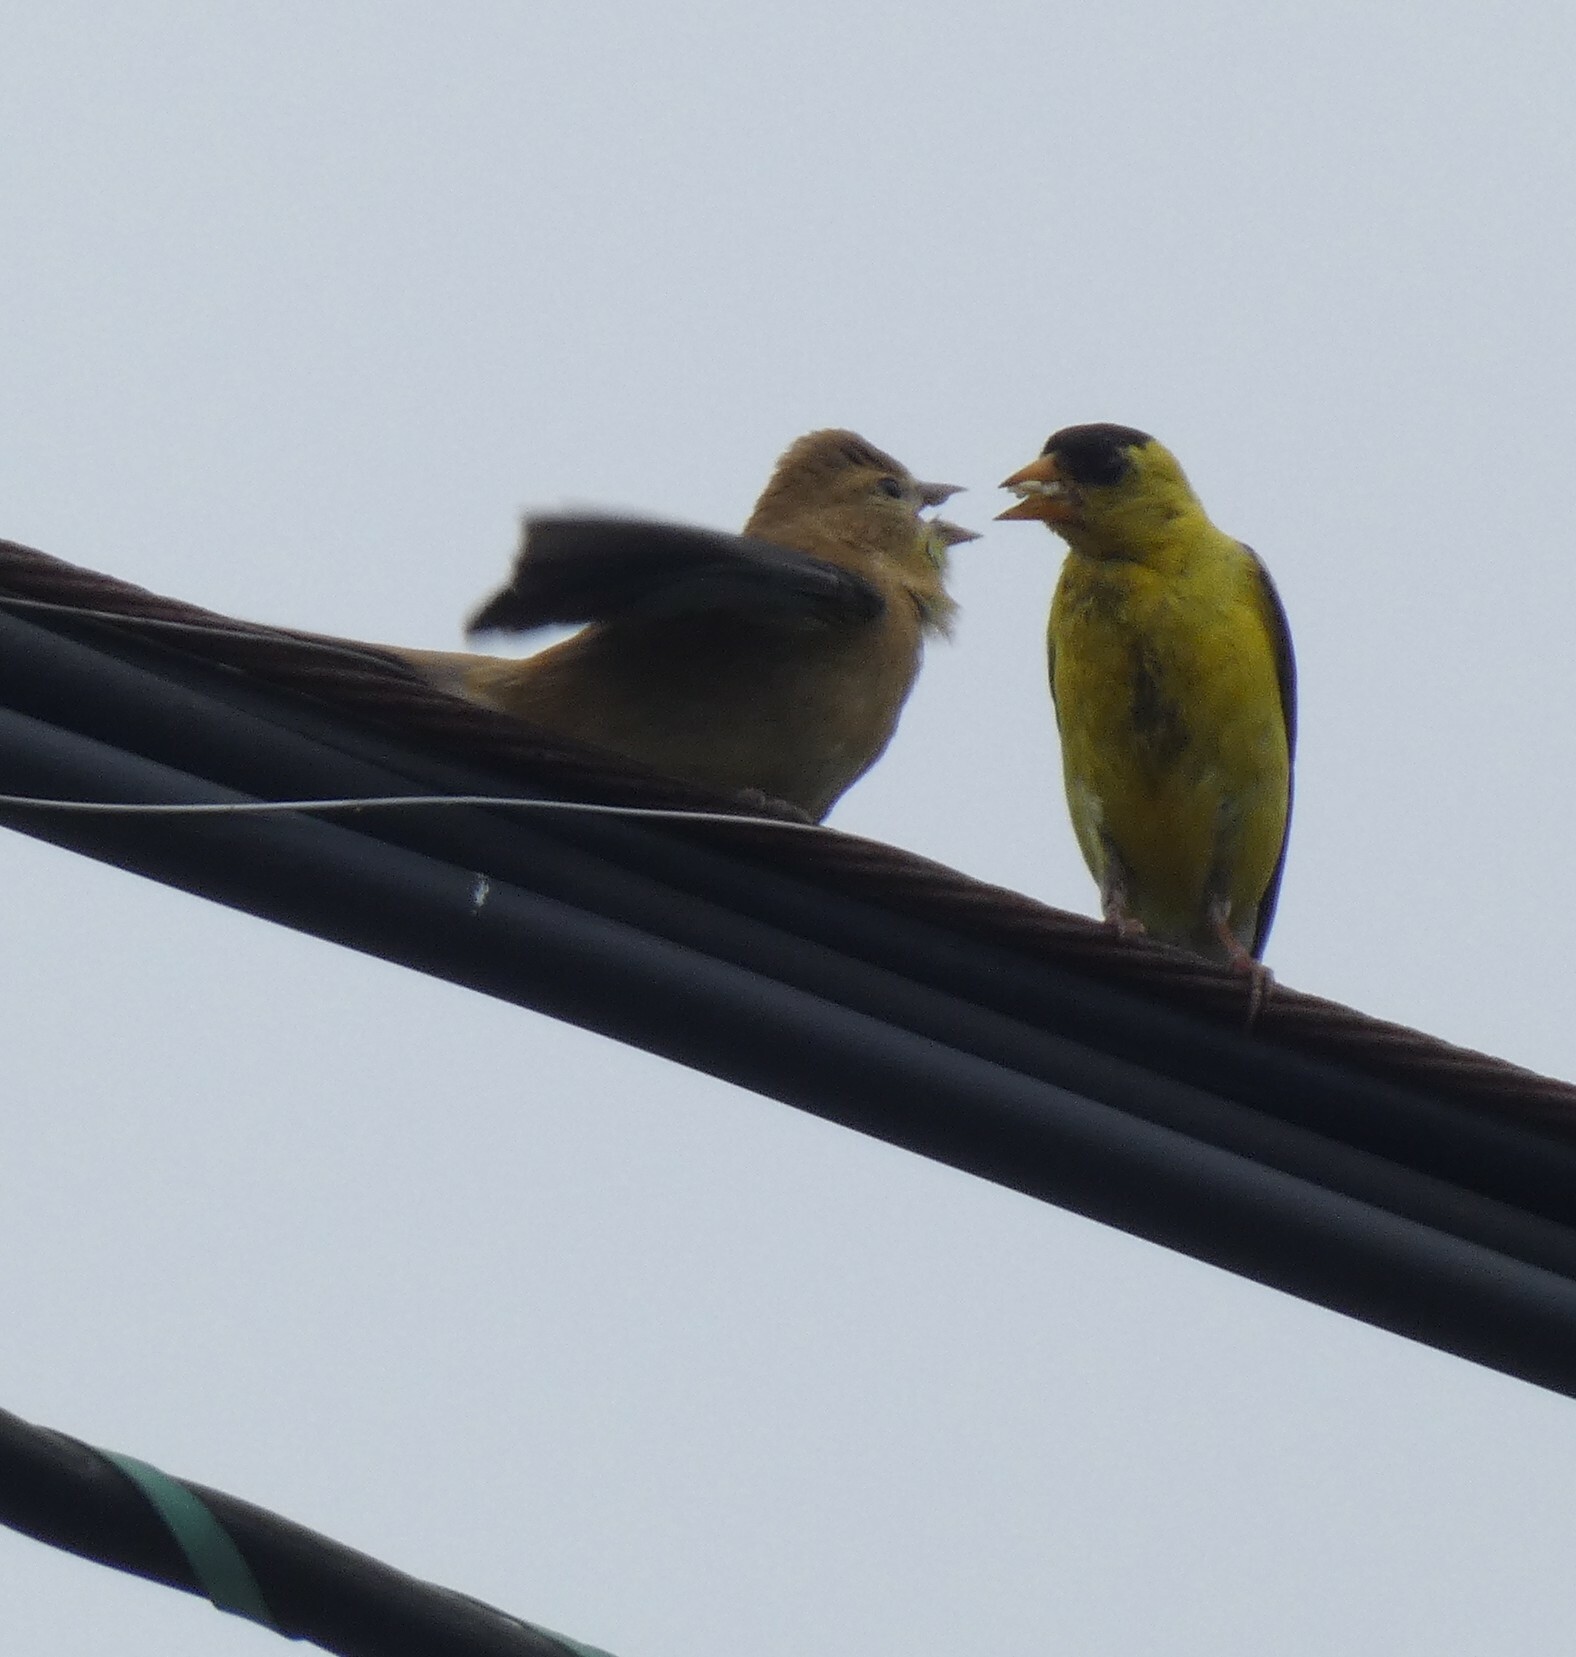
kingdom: Animalia
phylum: Chordata
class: Aves
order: Passeriformes
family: Fringillidae
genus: Spinus
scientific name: Spinus tristis
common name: American goldfinch
